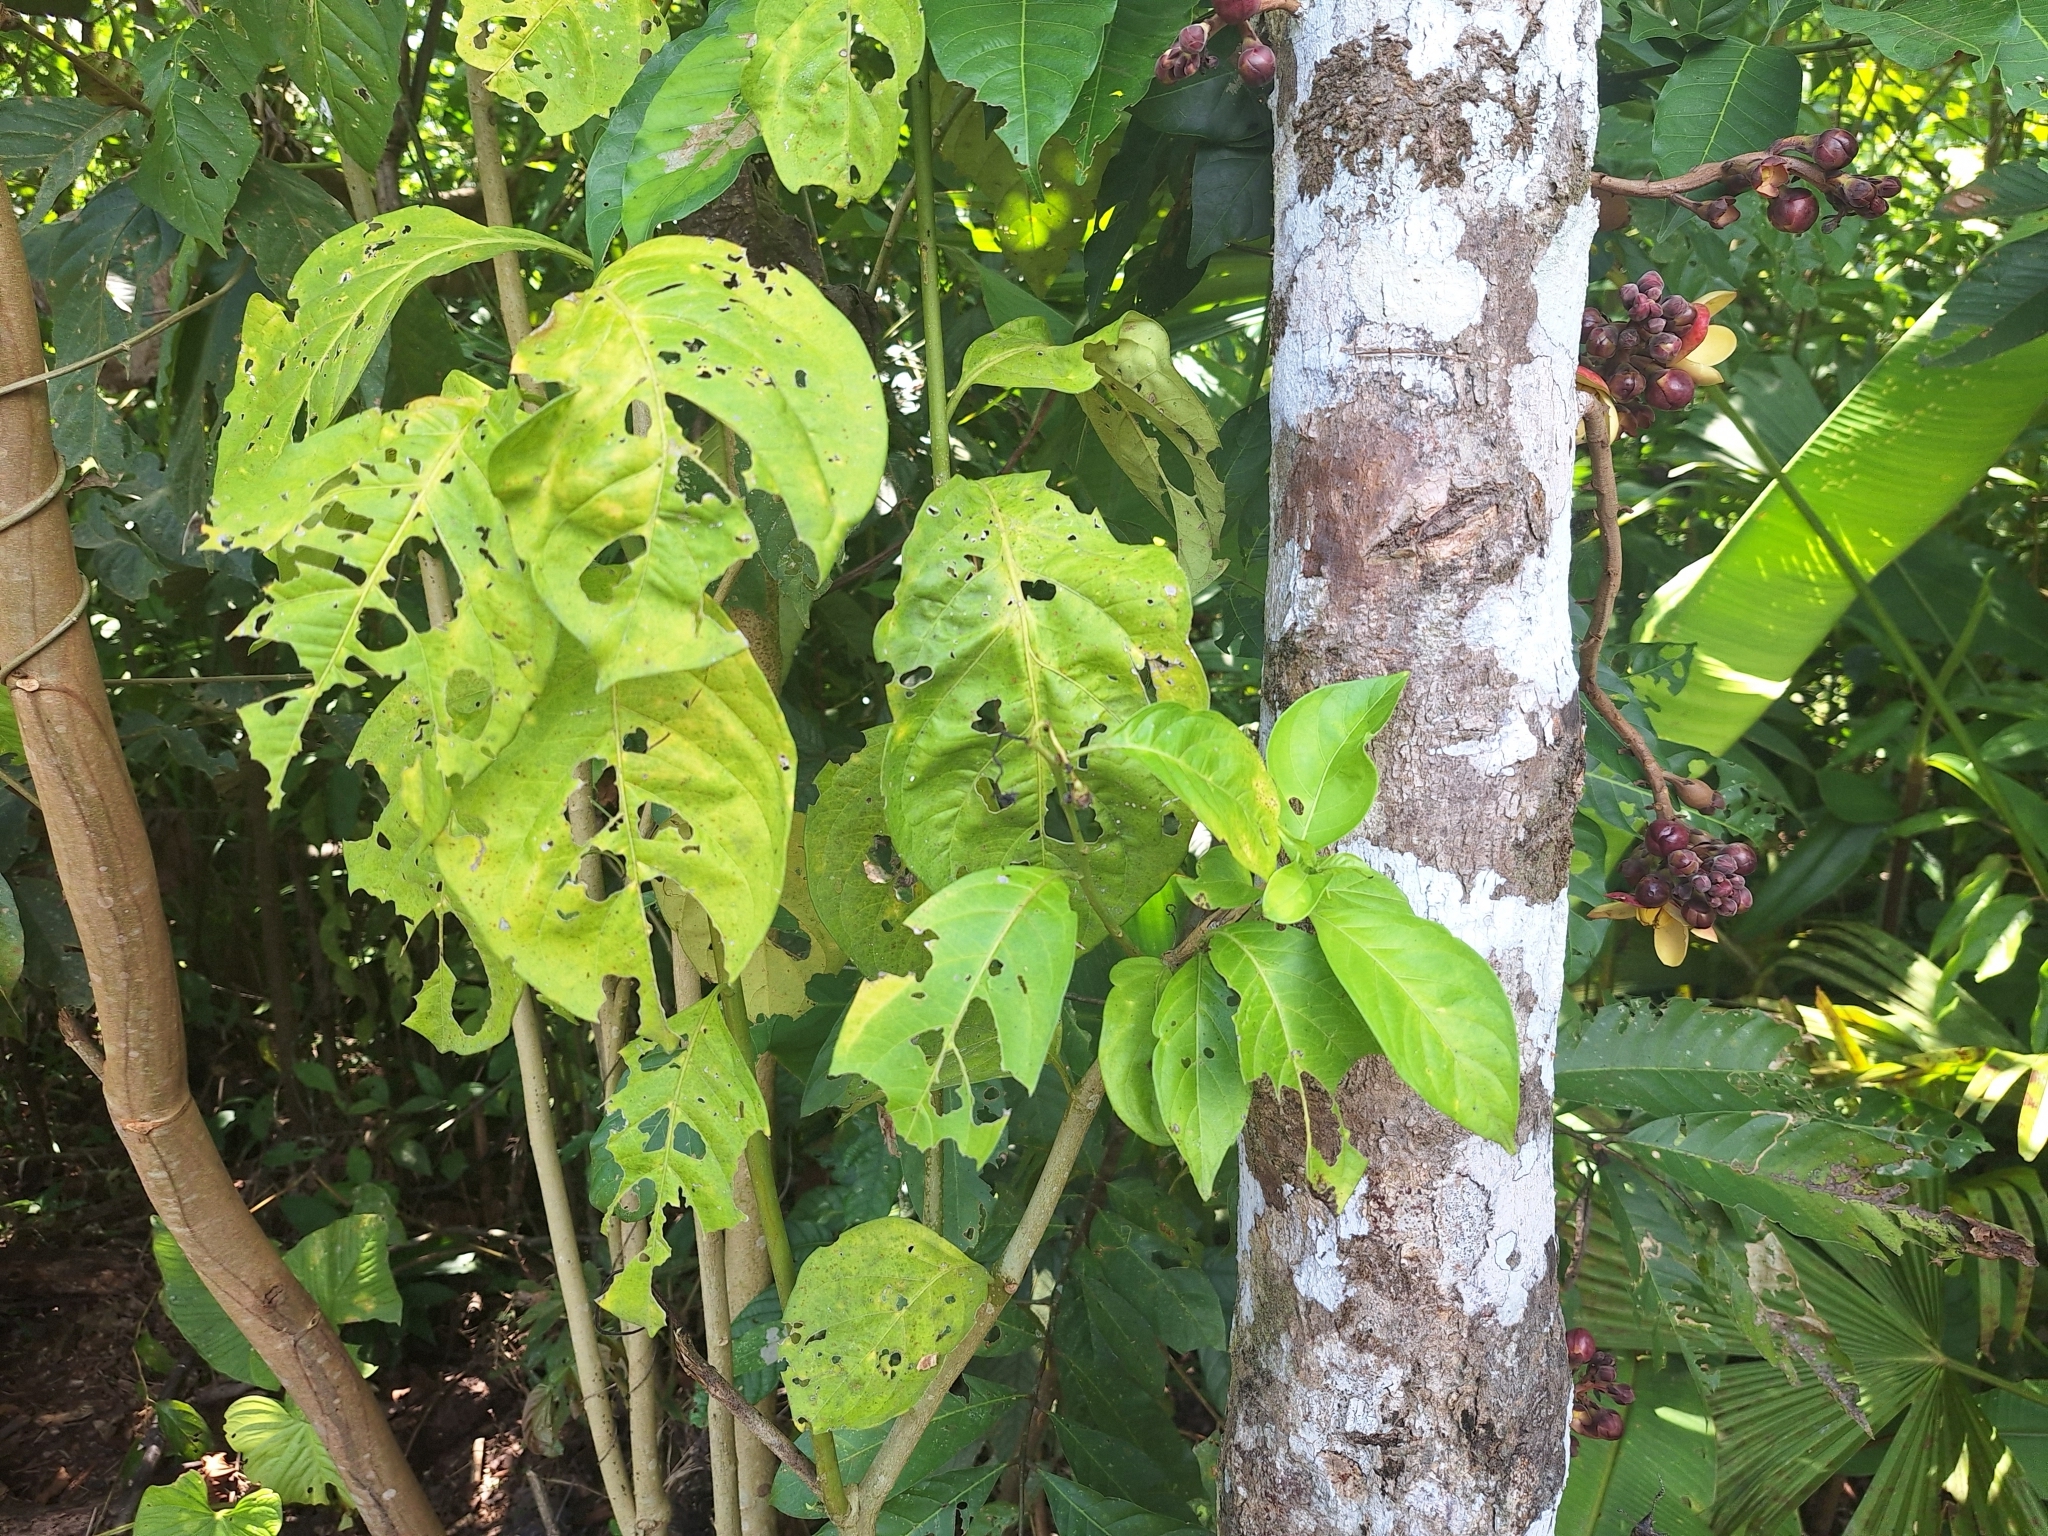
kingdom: Plantae
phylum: Tracheophyta
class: Magnoliopsida
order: Ericales
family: Lecythidaceae
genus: Grias
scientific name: Grias neuberthii
